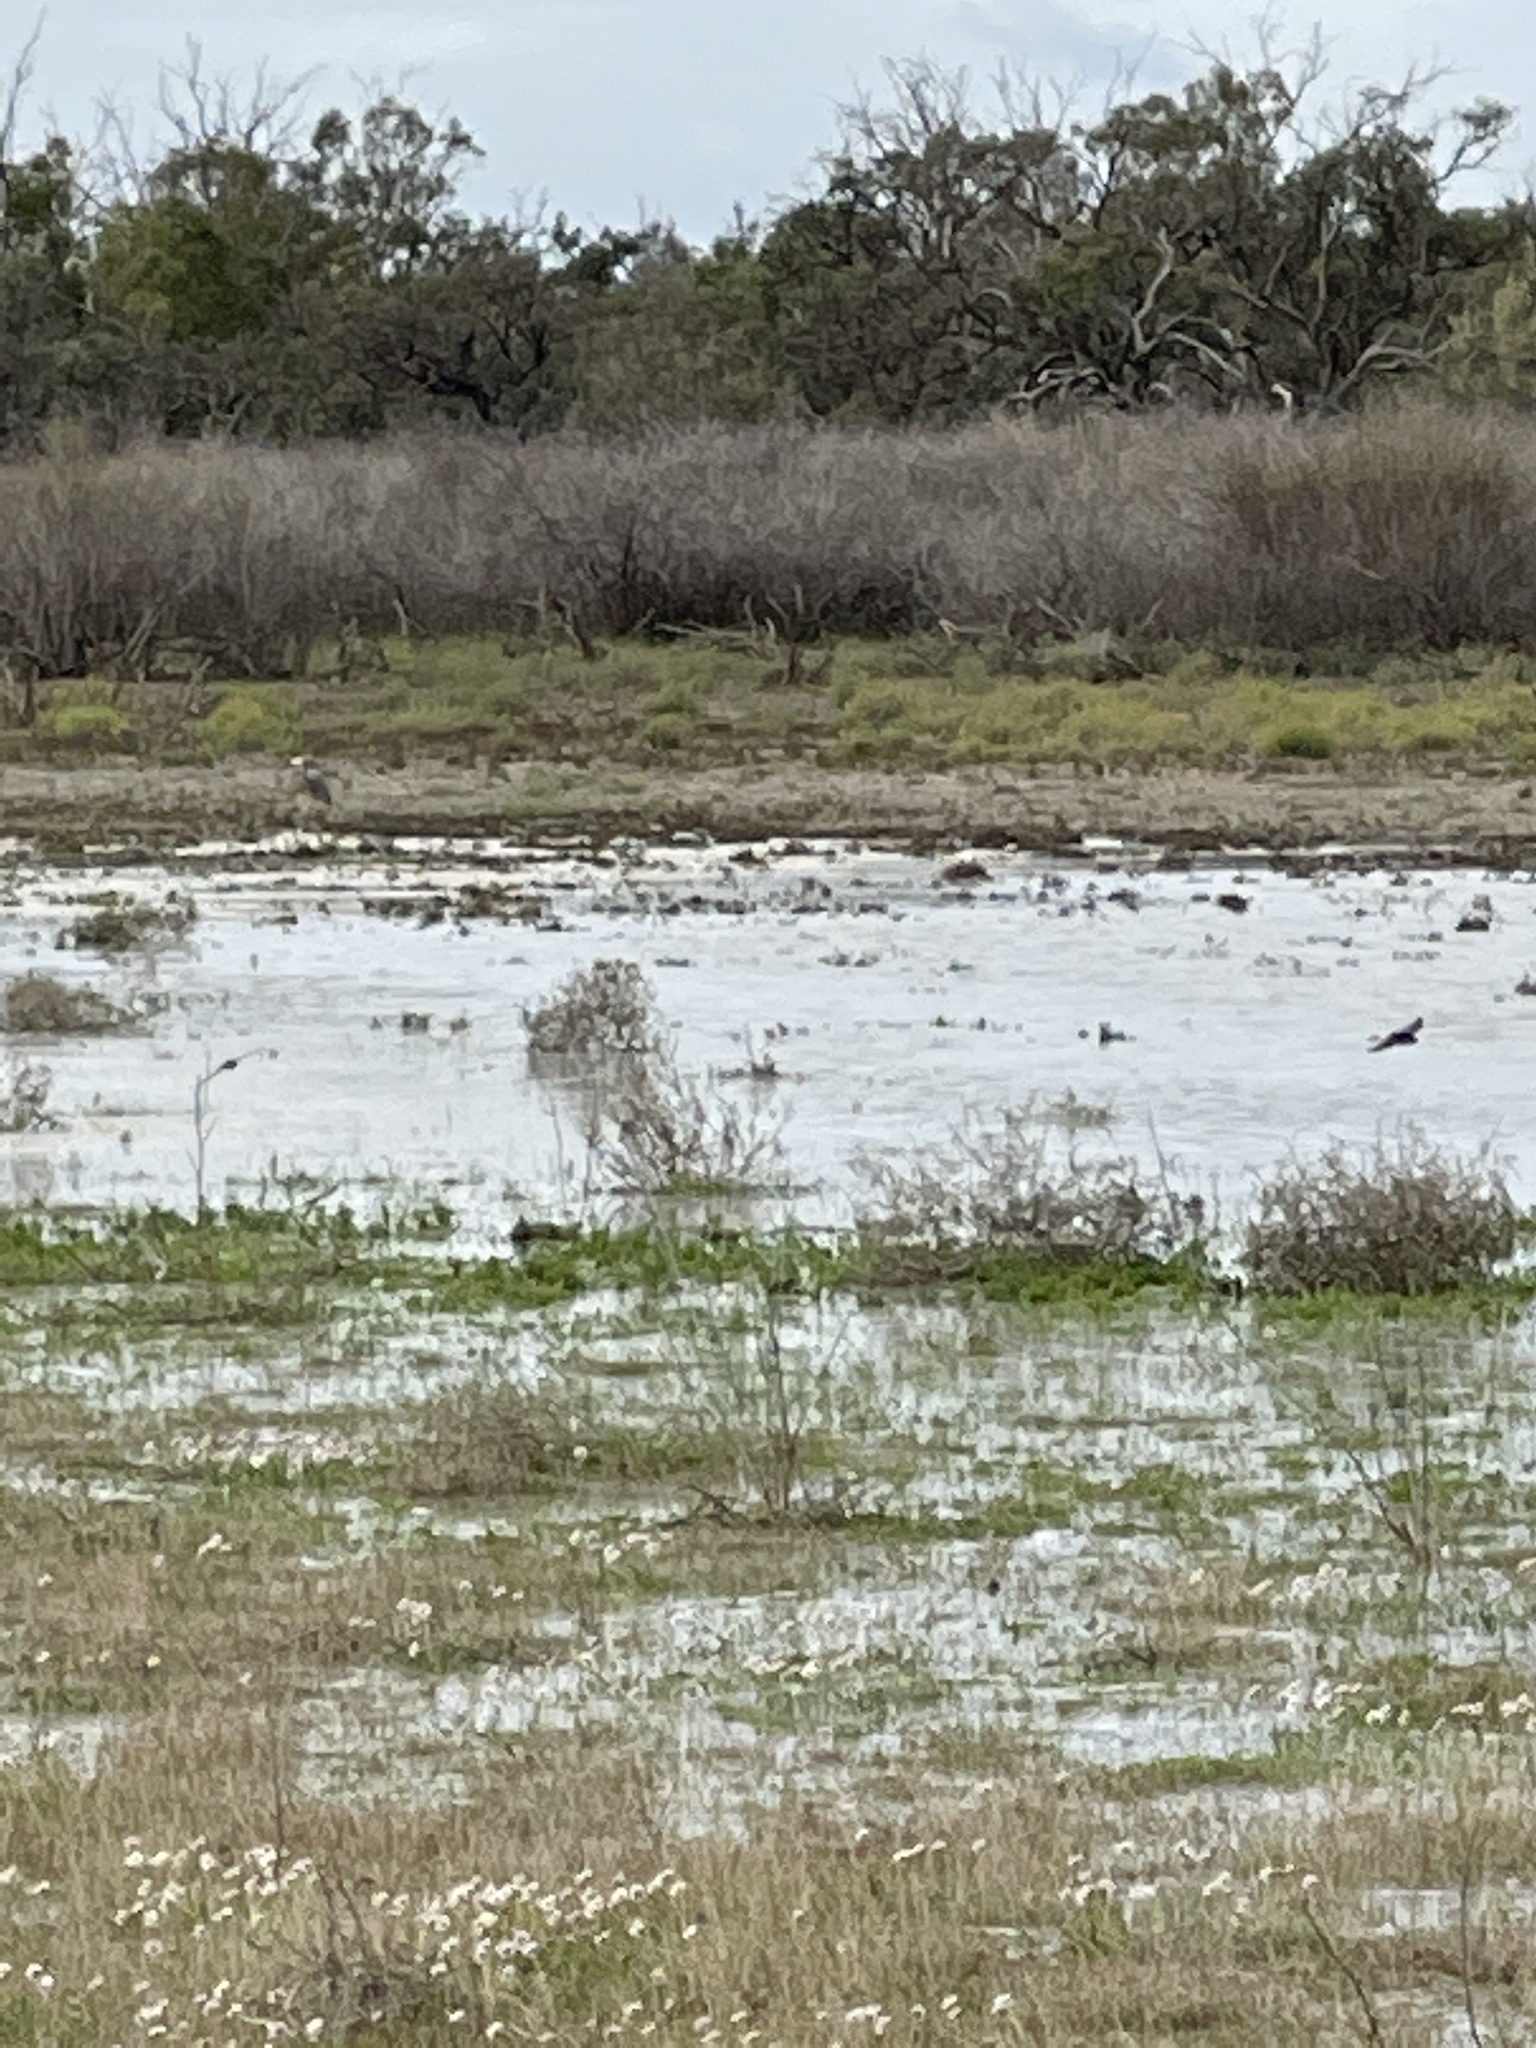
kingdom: Animalia
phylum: Chordata
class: Aves
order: Pelecaniformes
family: Ardeidae
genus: Egretta
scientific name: Egretta novaehollandiae
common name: White-faced heron
